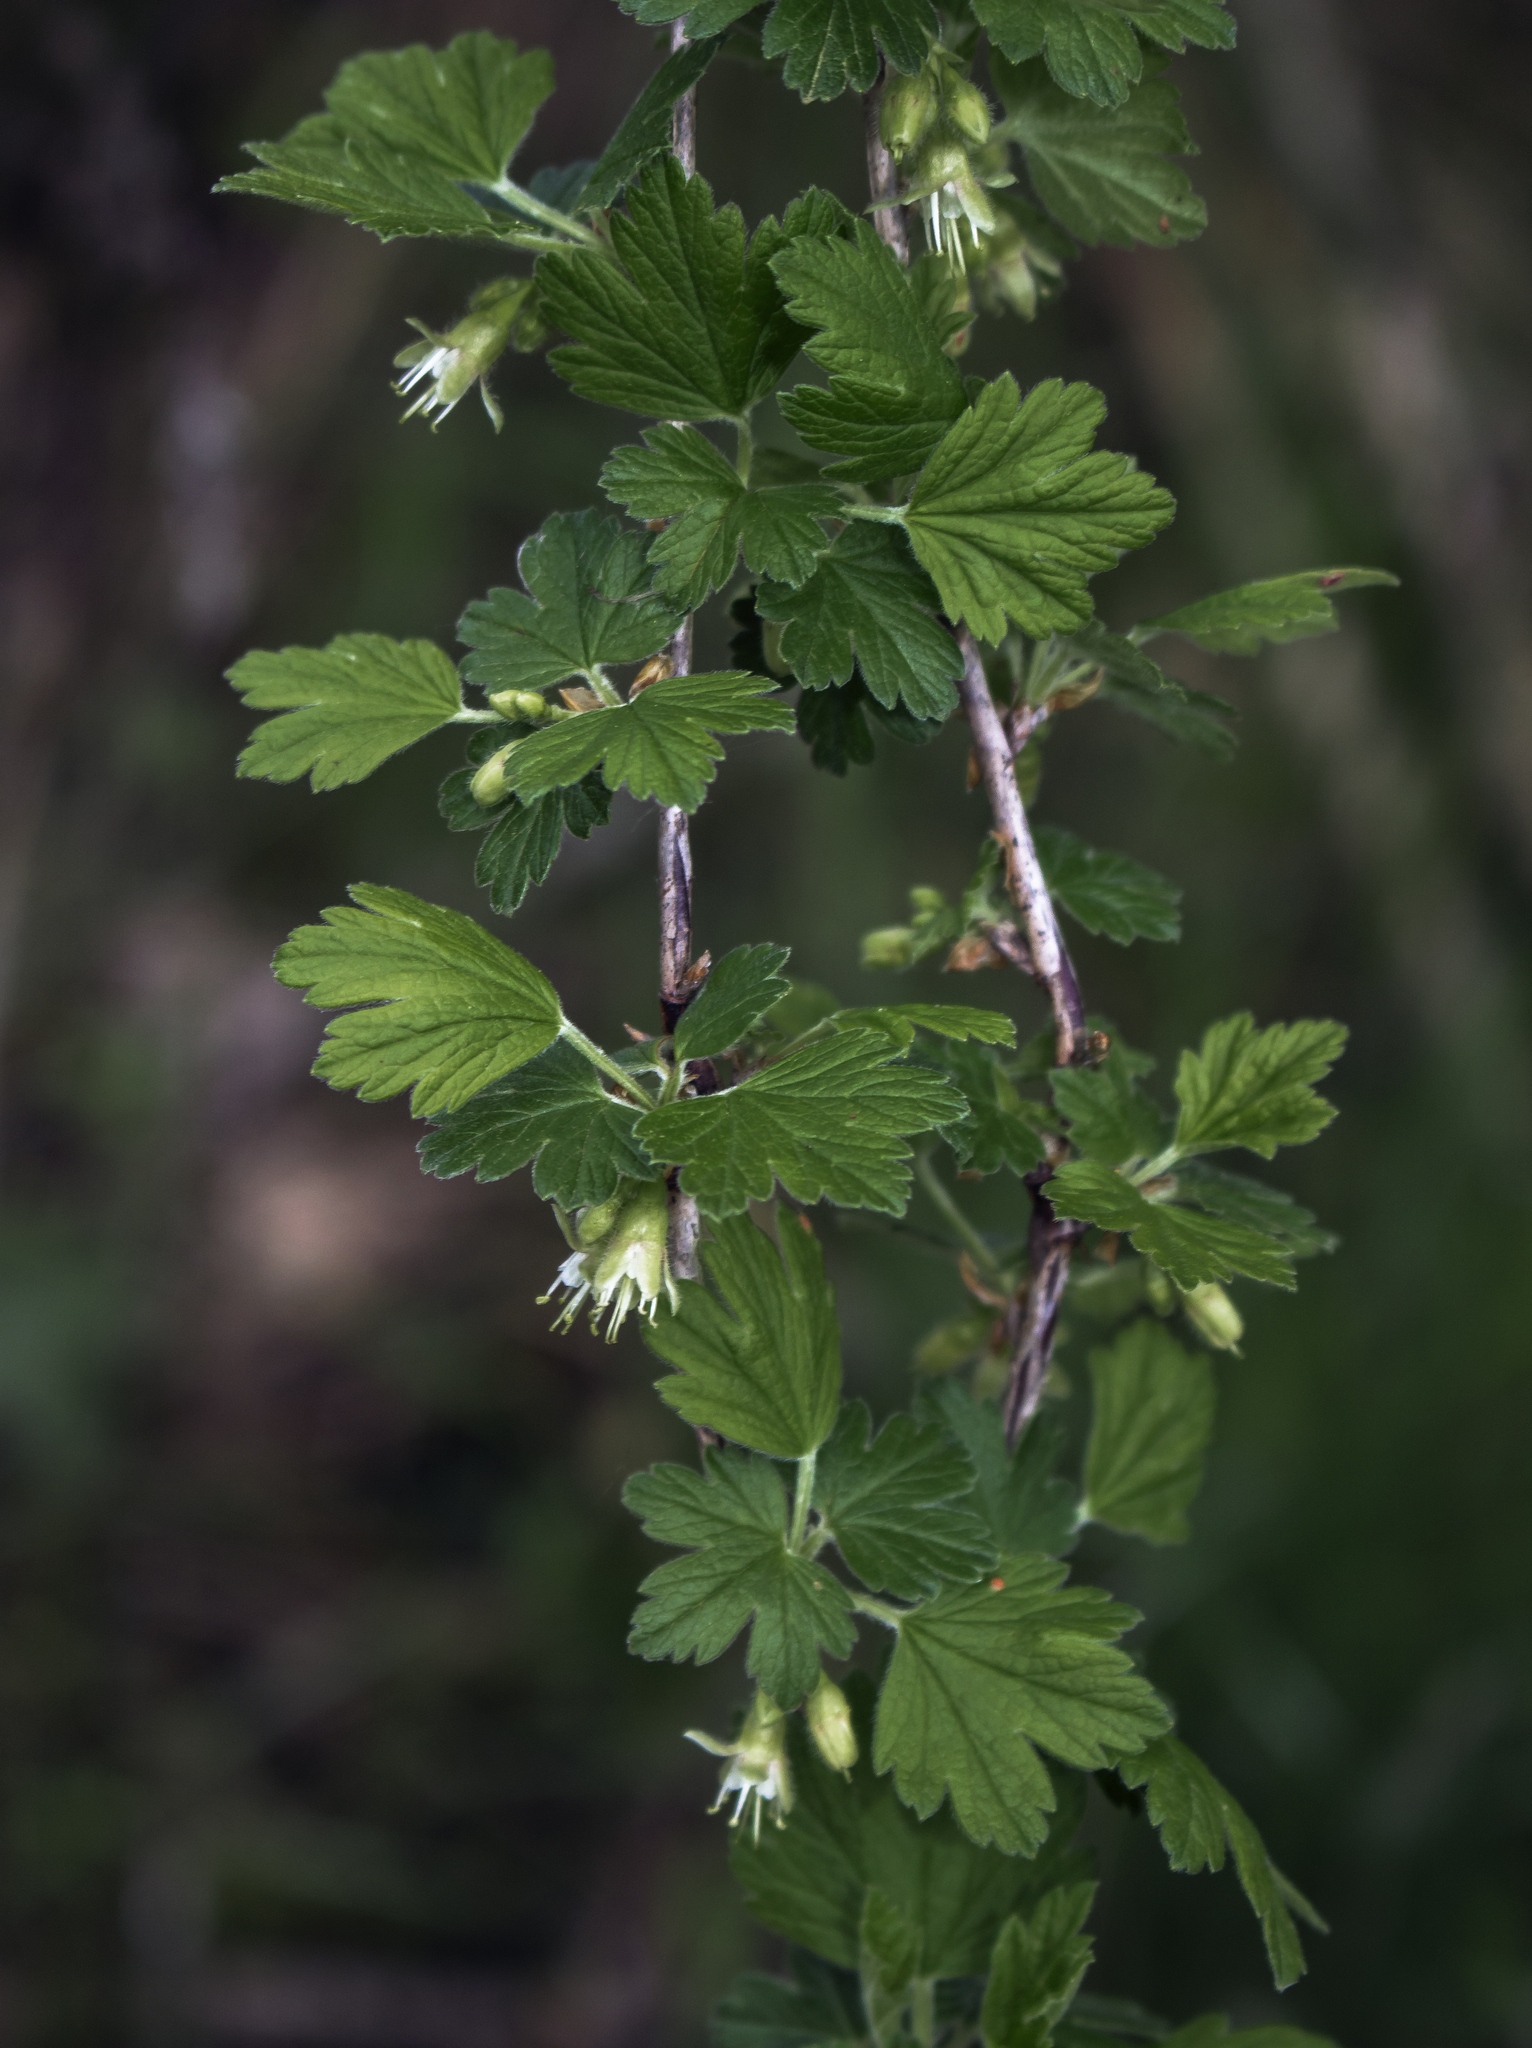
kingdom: Plantae
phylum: Tracheophyta
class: Magnoliopsida
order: Saxifragales
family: Grossulariaceae
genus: Ribes
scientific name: Ribes hirtellum
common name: Hairy gooseberry
